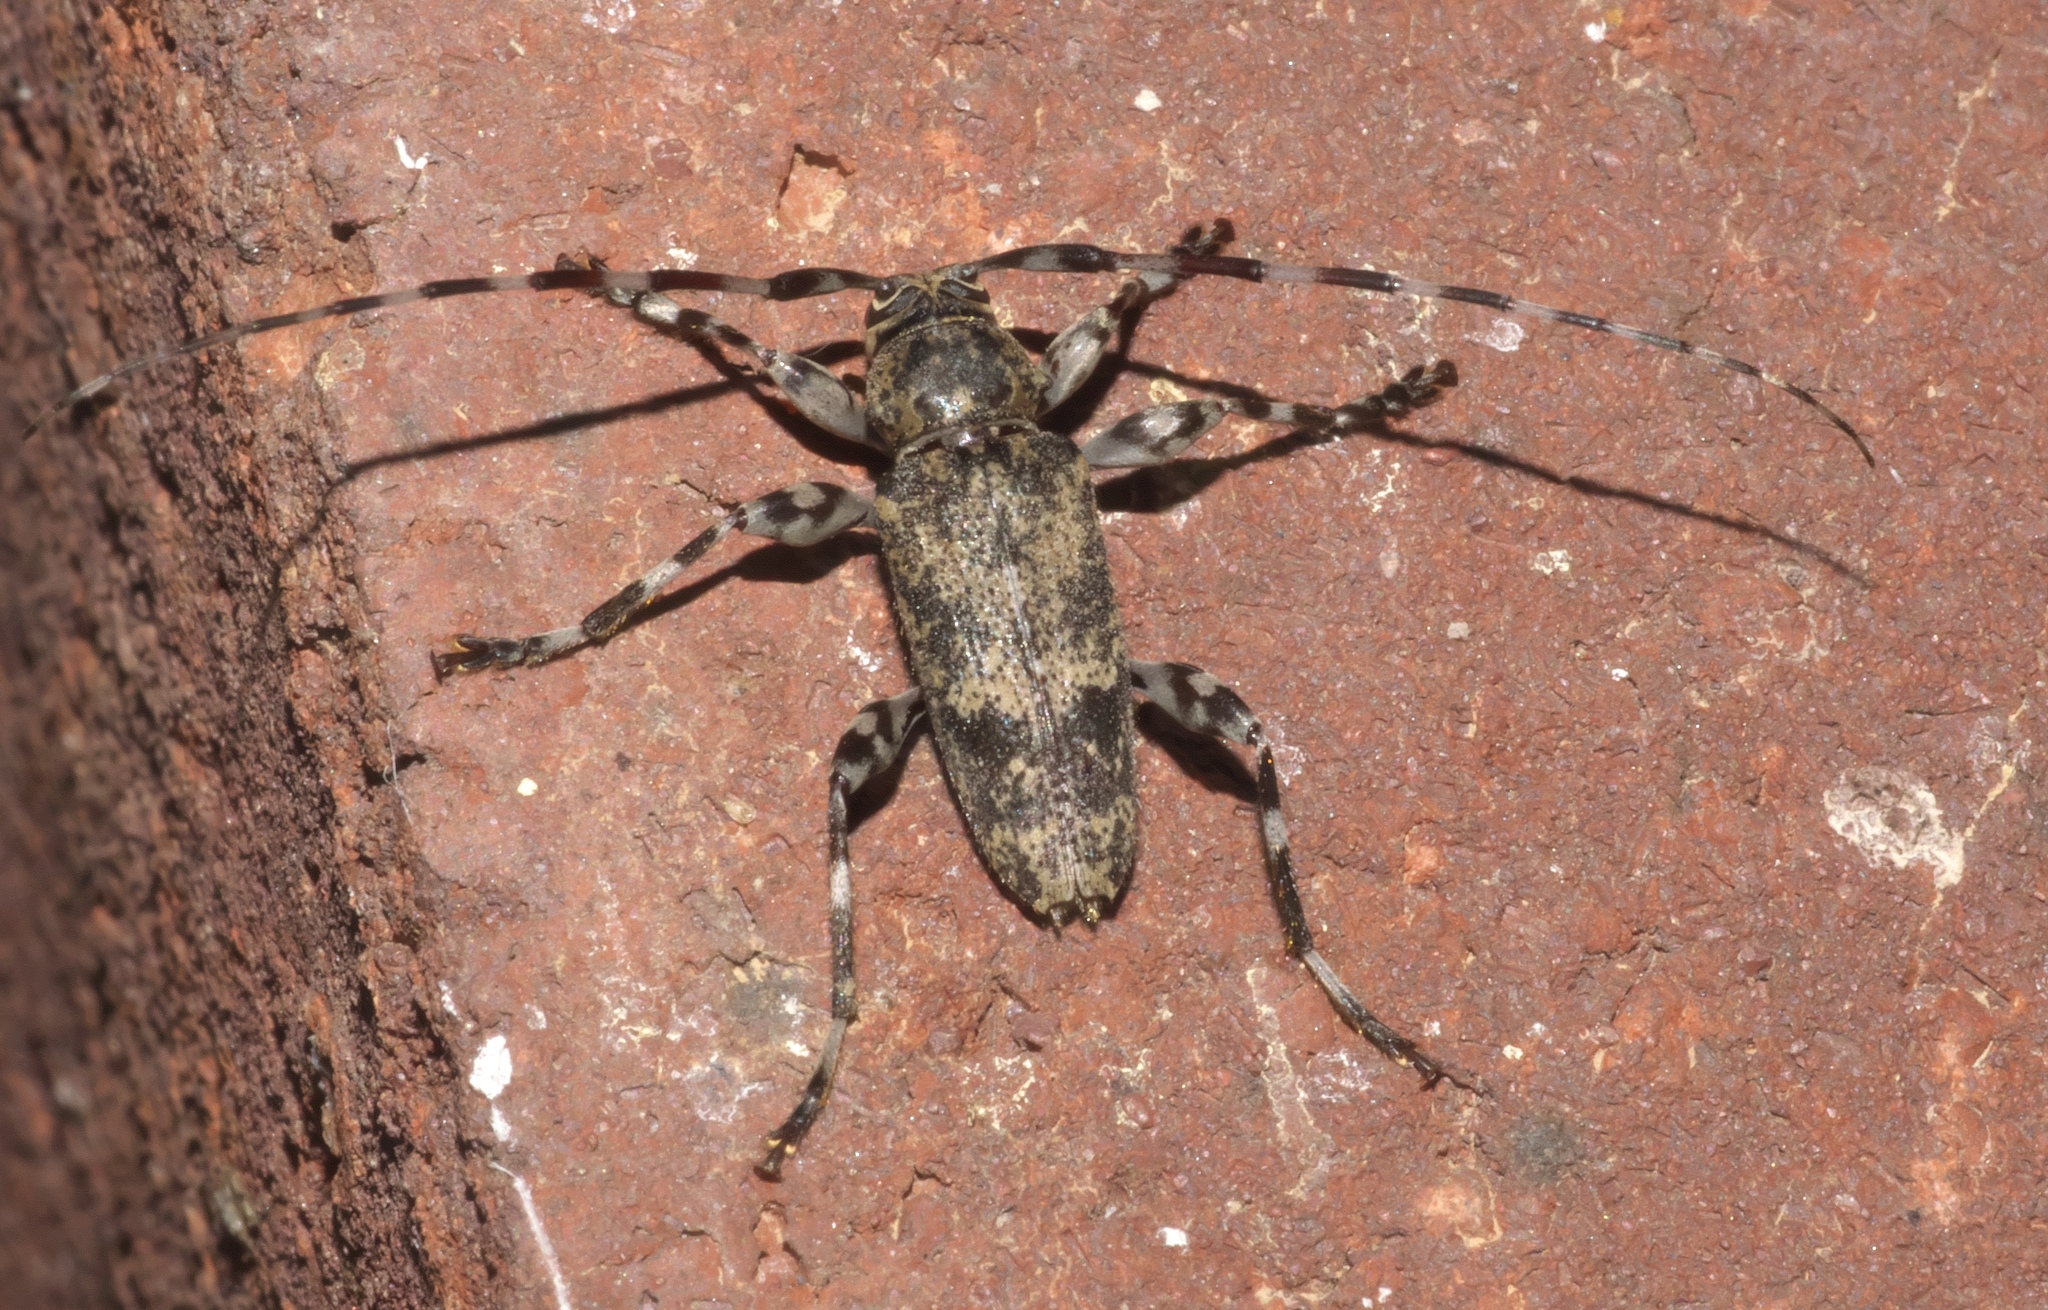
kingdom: Animalia
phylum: Arthropoda
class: Insecta
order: Coleoptera
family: Cerambycidae
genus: Graphisurus
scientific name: Graphisurus fasciatus
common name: Banded graphisurus
